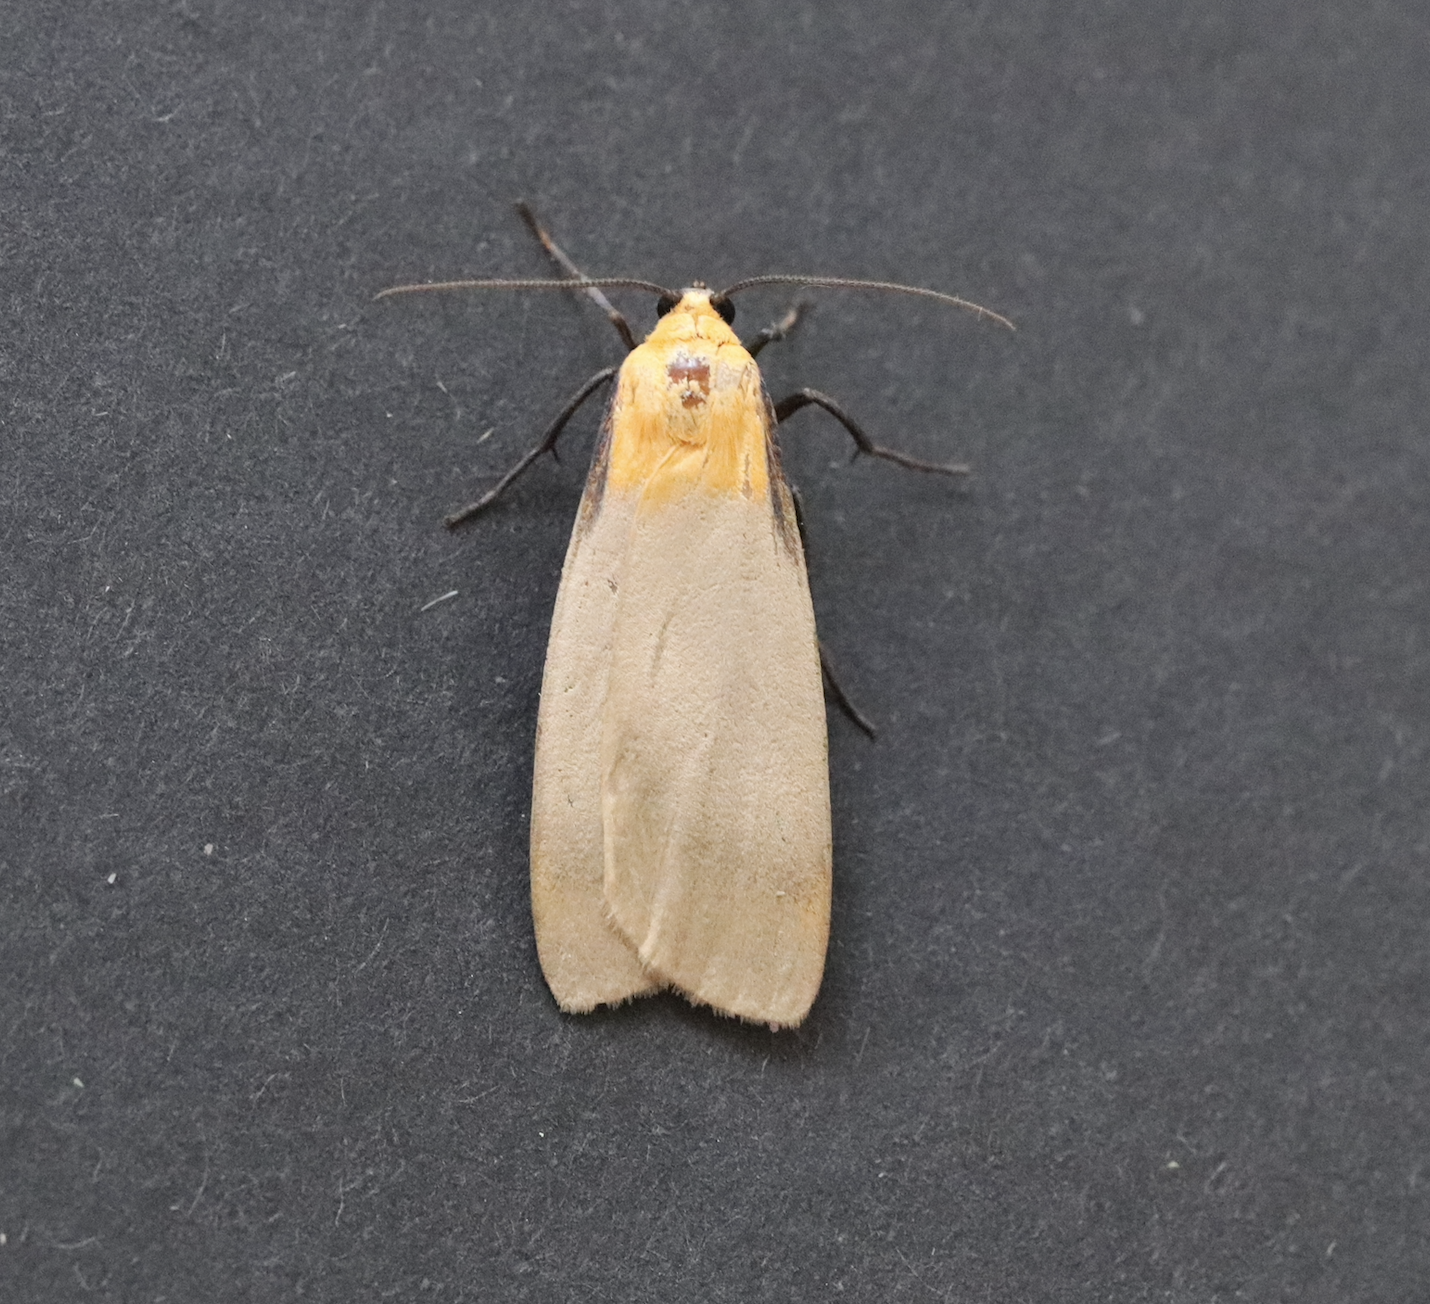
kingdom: Animalia
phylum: Arthropoda
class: Insecta
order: Lepidoptera
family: Erebidae
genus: Lithosia
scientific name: Lithosia quadra
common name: Four-spotted footman
